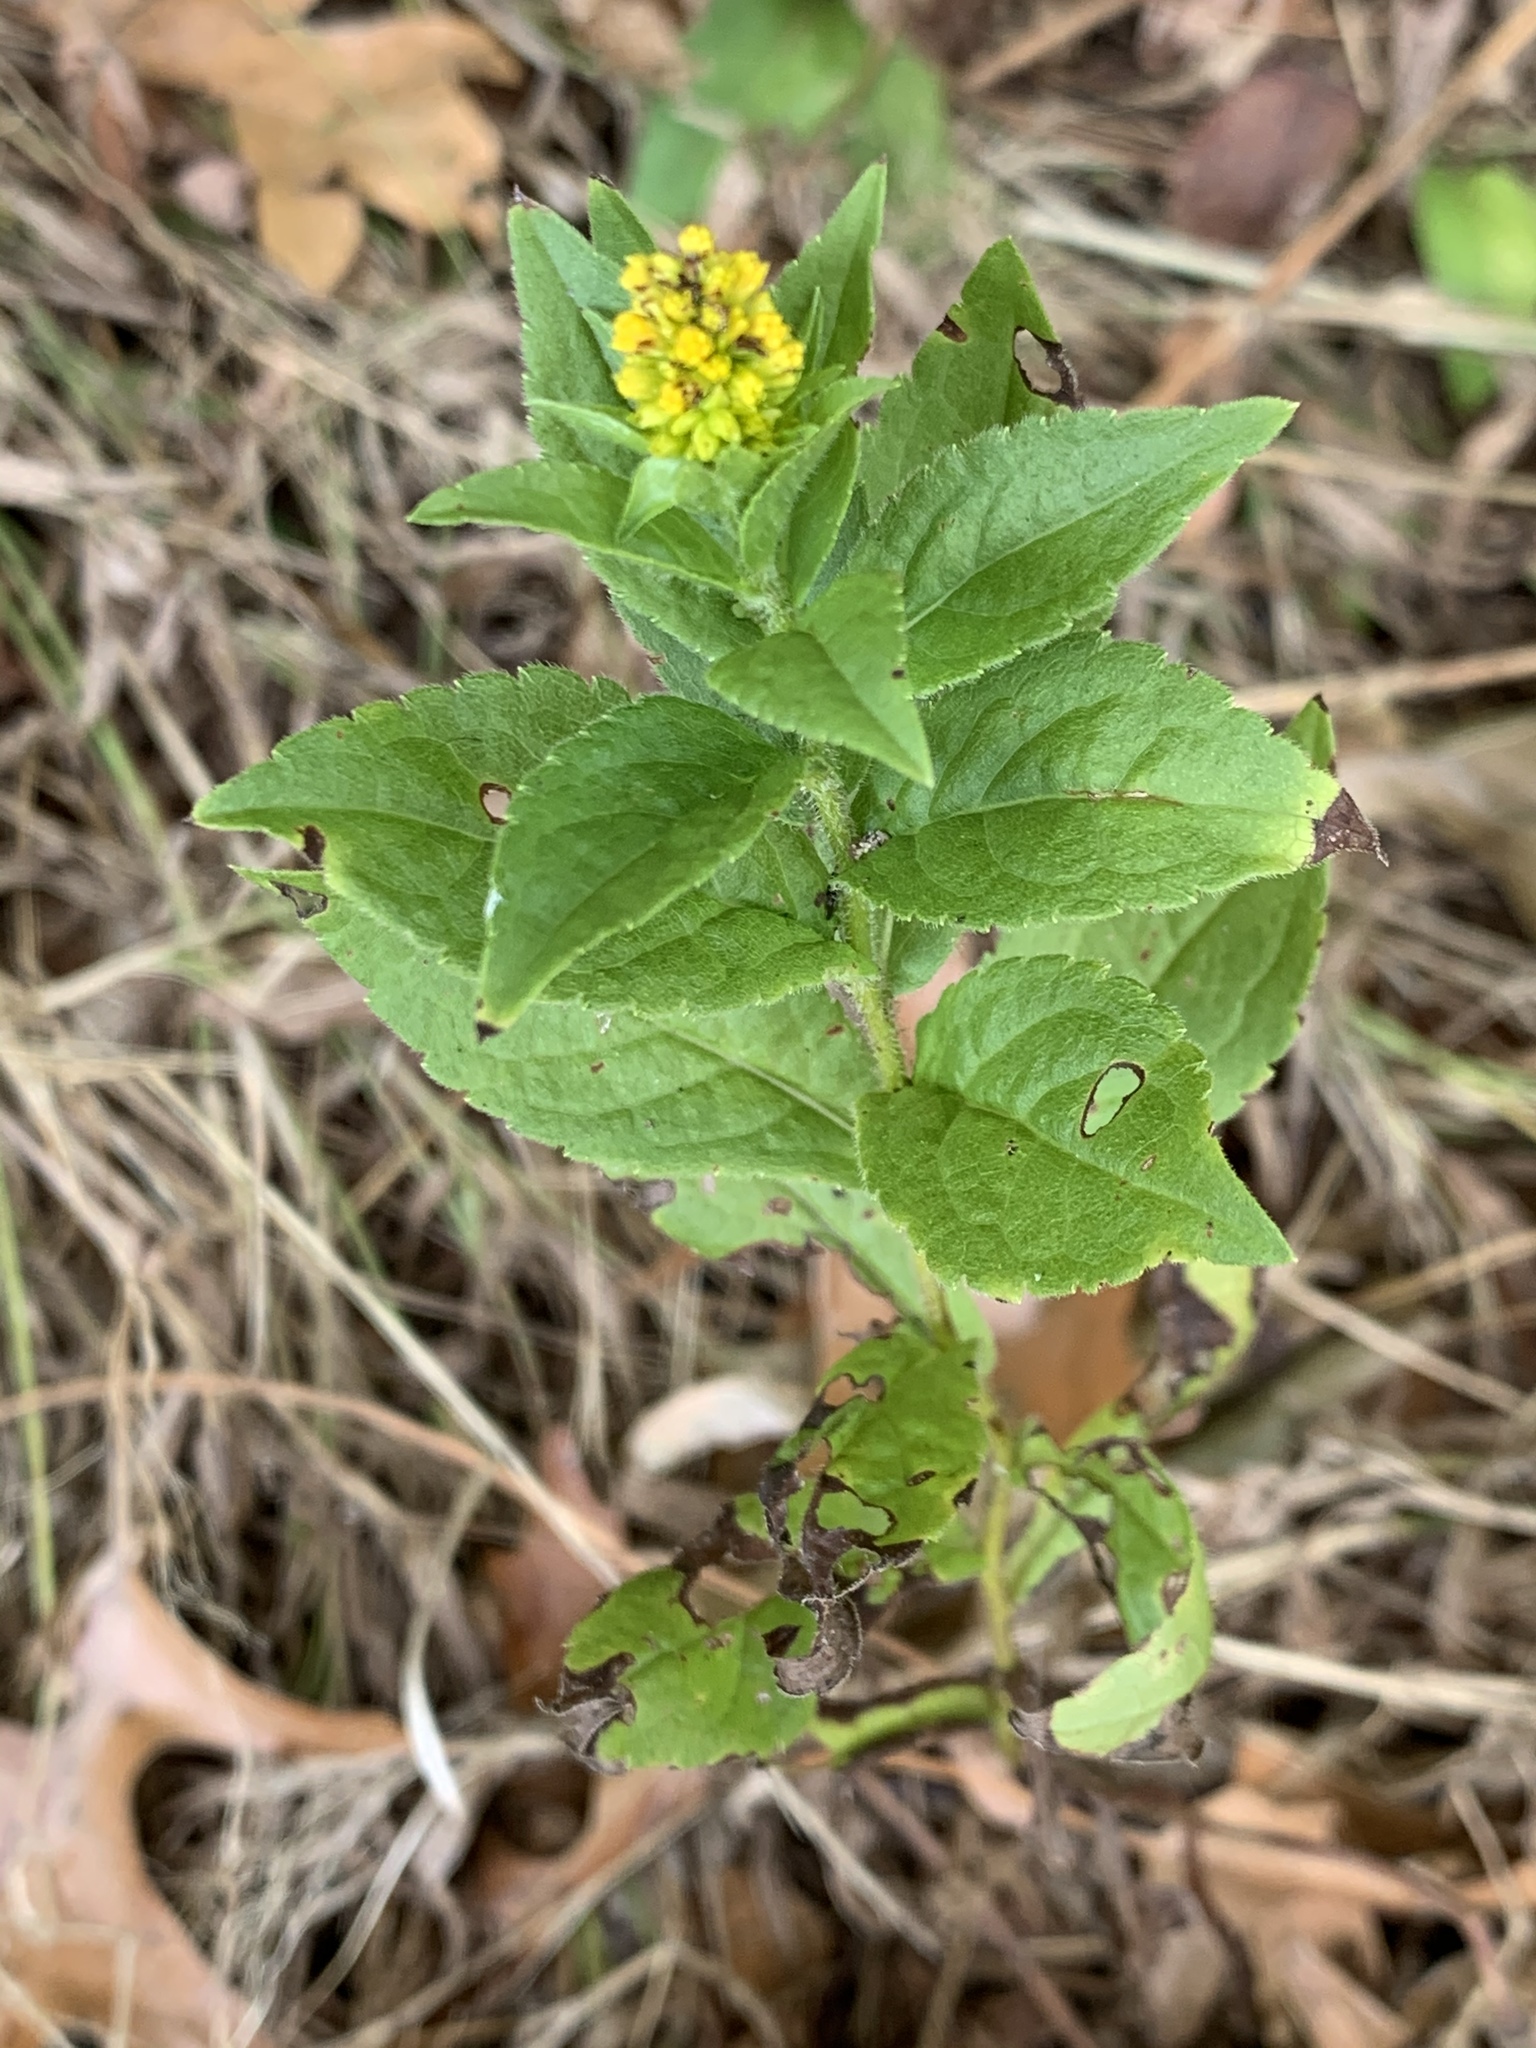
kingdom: Plantae
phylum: Tracheophyta
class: Magnoliopsida
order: Asterales
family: Asteraceae
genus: Solidago
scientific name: Solidago rugosa
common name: Rough-stemmed goldenrod
